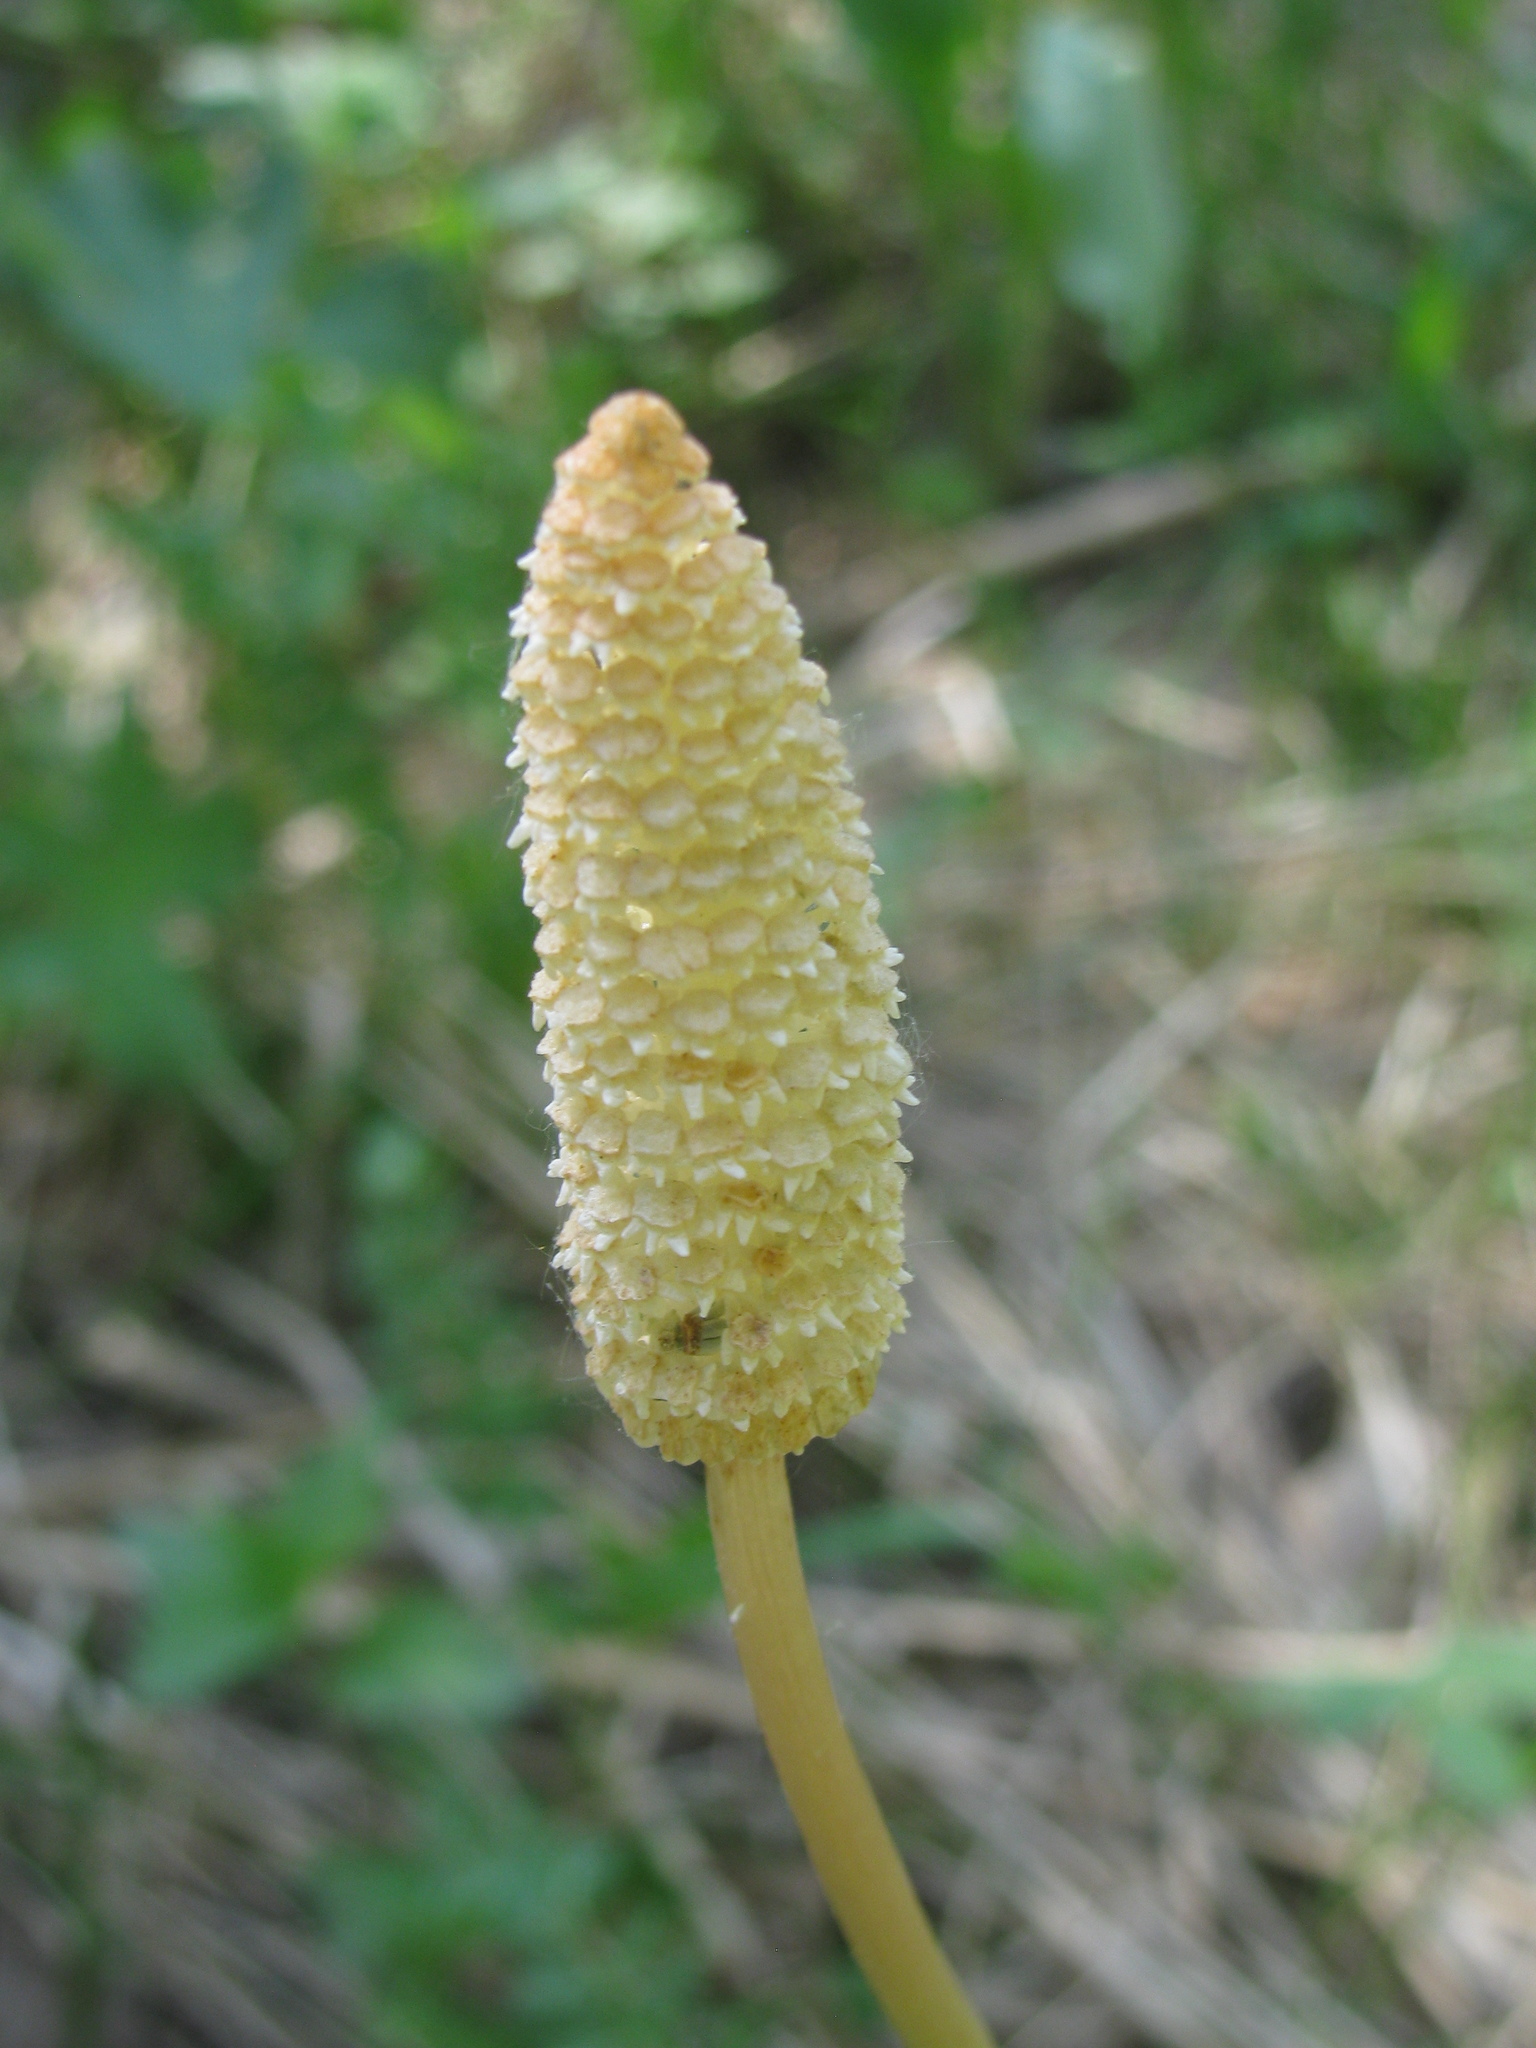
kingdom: Plantae
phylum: Tracheophyta
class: Polypodiopsida
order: Equisetales
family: Equisetaceae
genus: Equisetum
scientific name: Equisetum sylvaticum
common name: Wood horsetail
